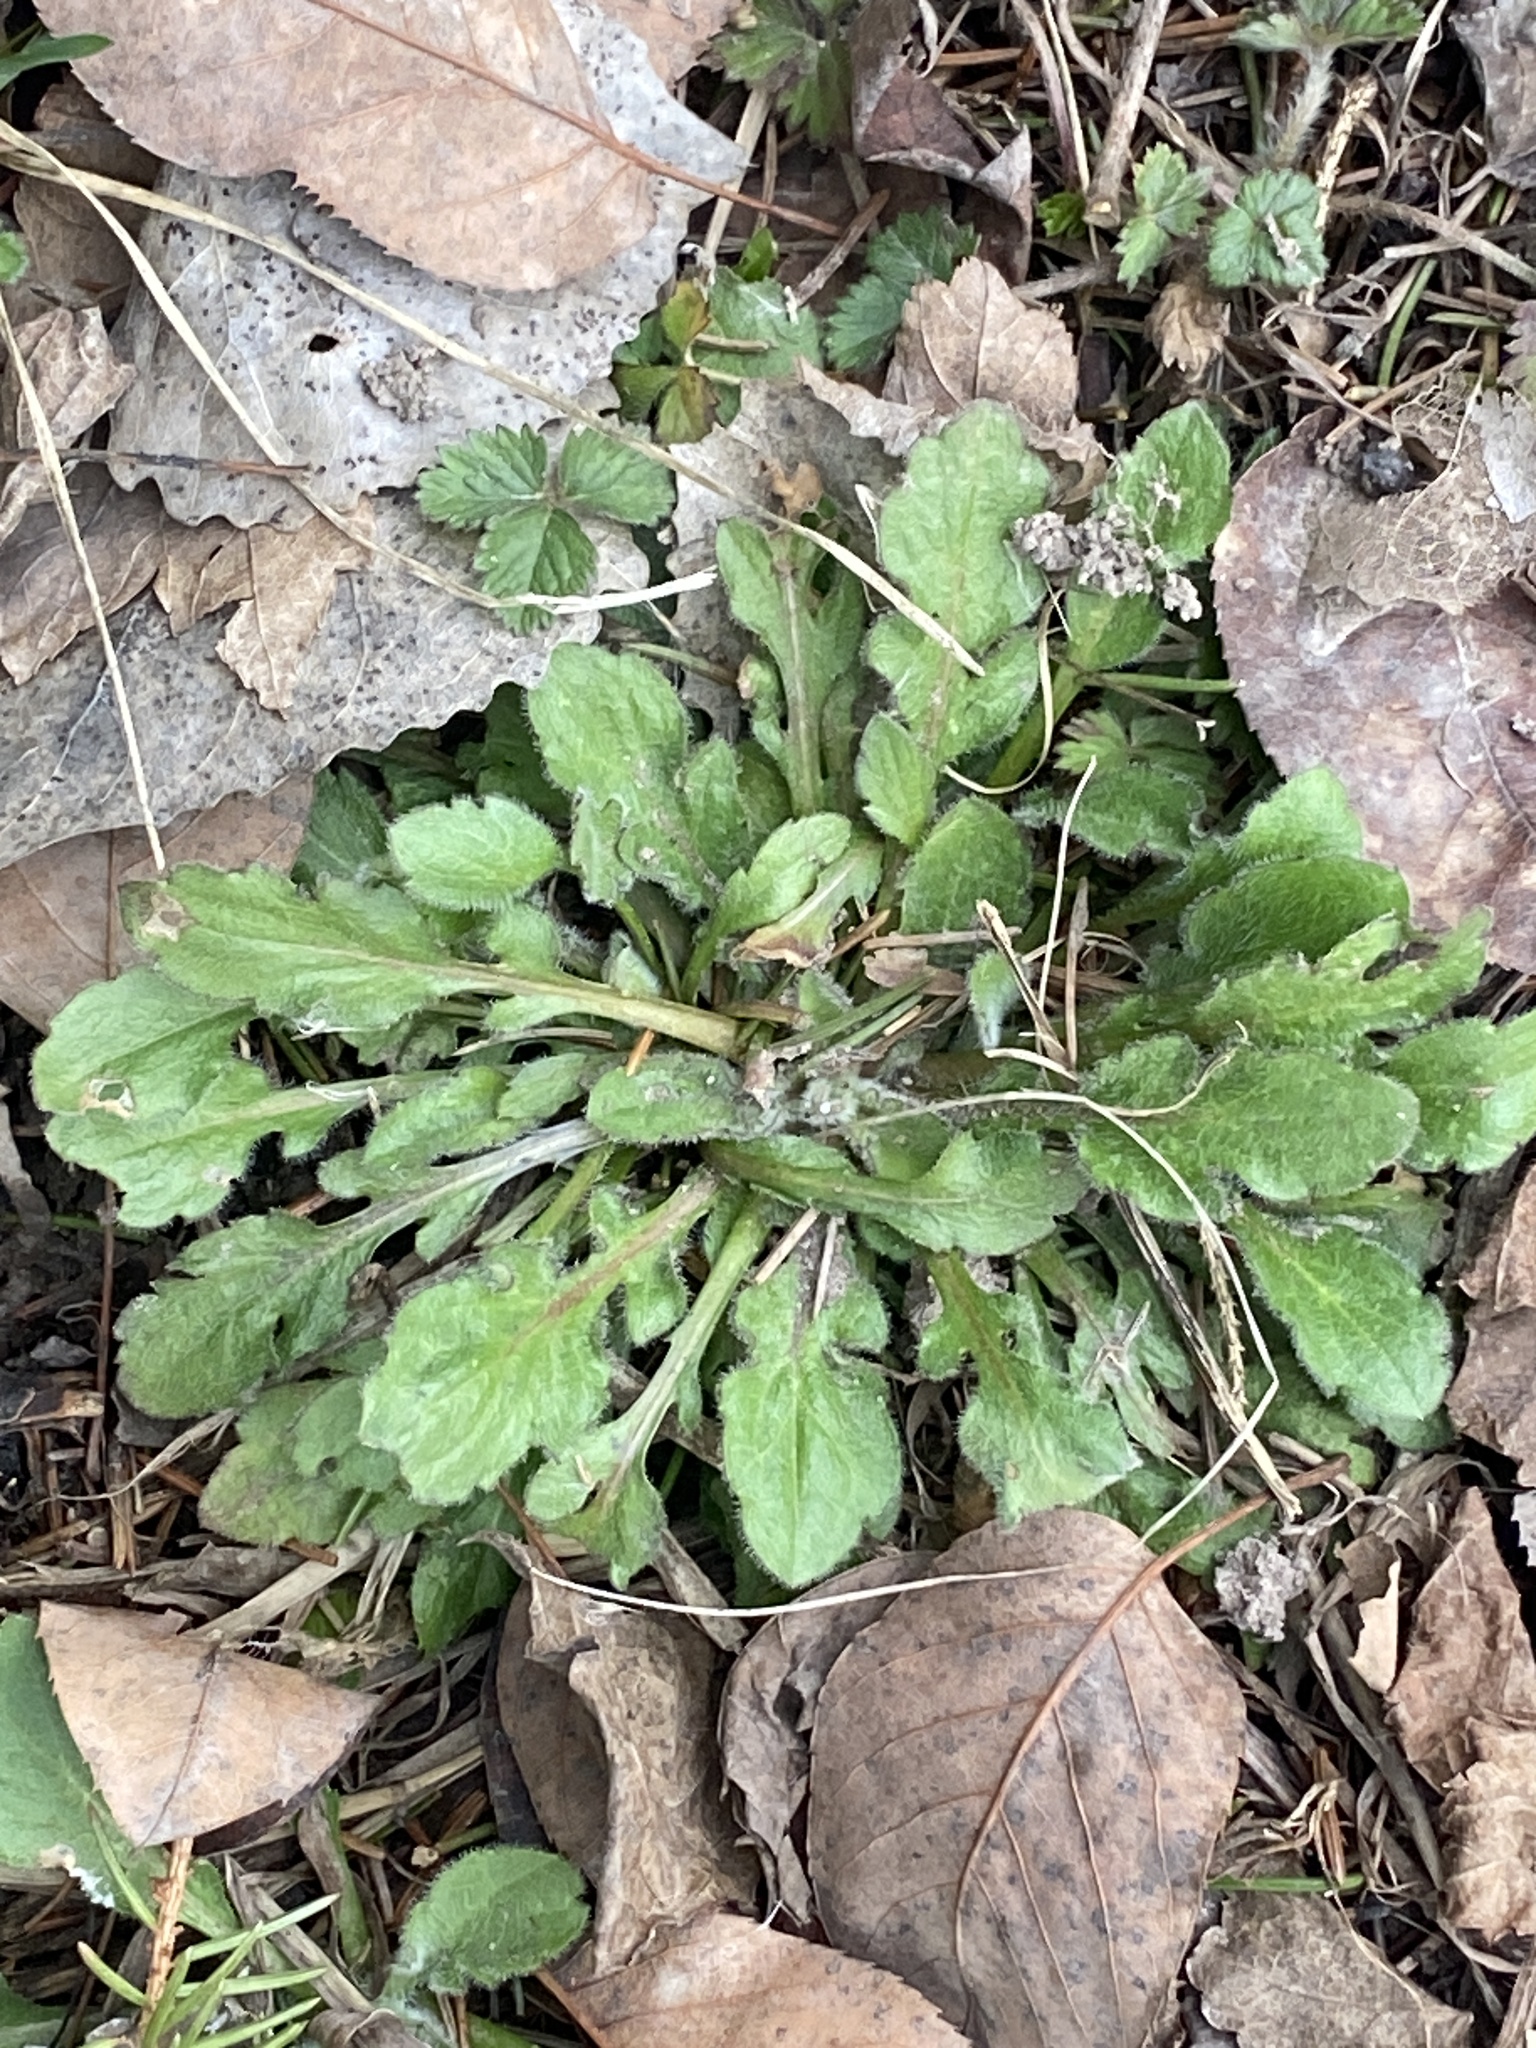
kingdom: Plantae
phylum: Tracheophyta
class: Magnoliopsida
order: Asterales
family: Asteraceae
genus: Erigeron
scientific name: Erigeron canadensis
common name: Canadian fleabane
